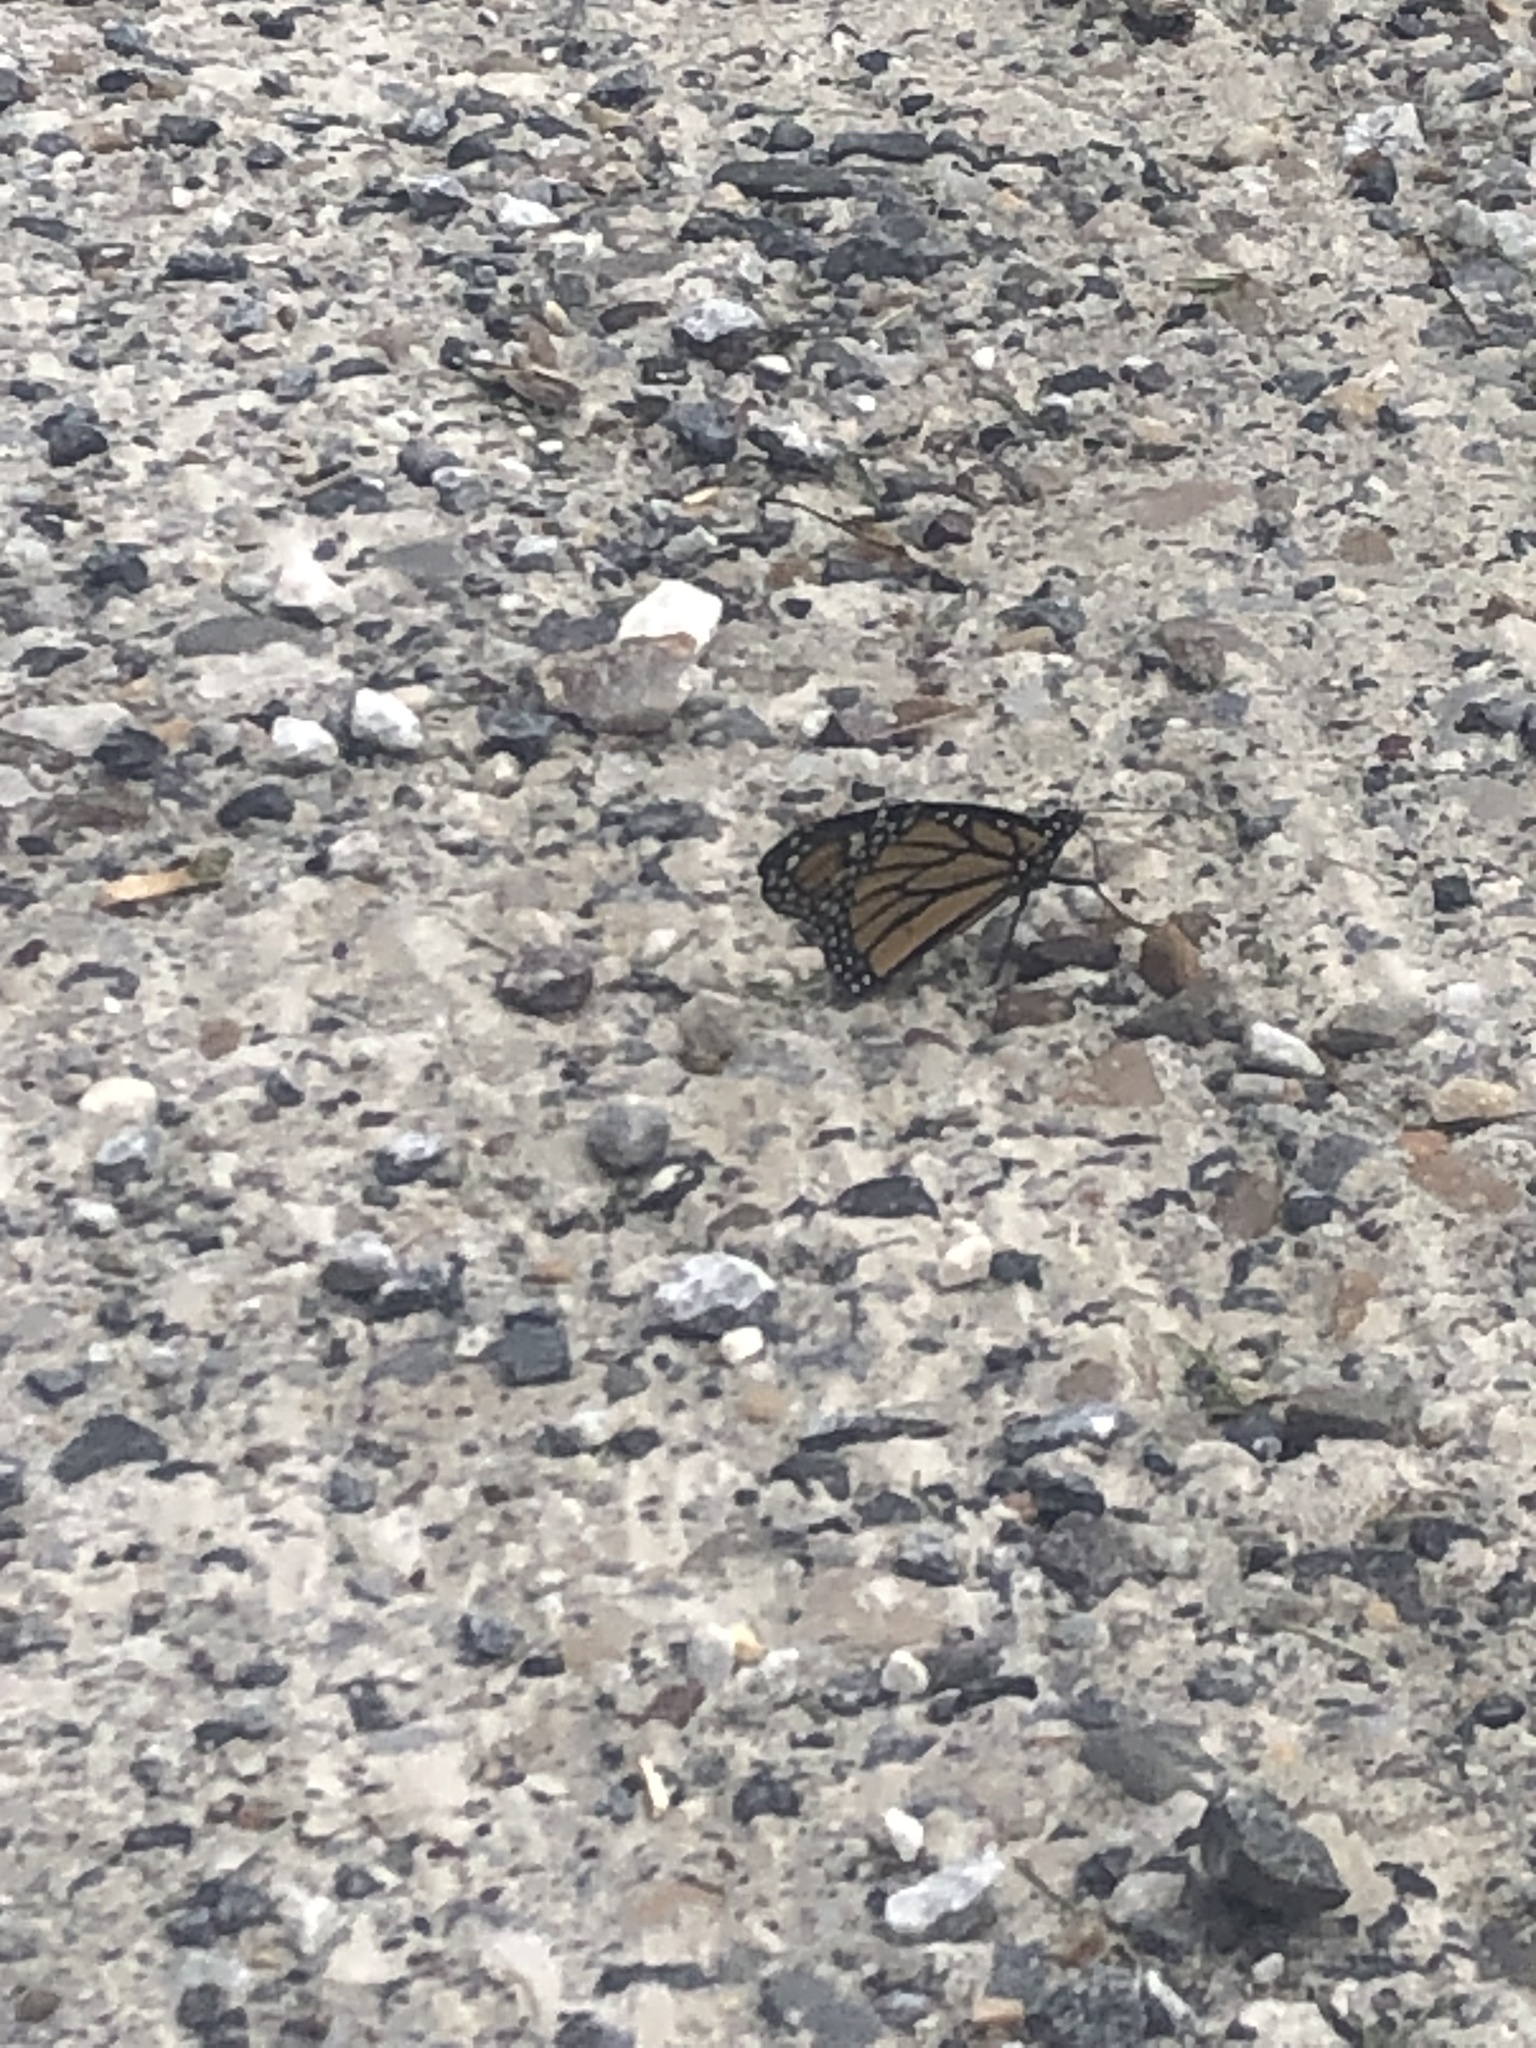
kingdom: Animalia
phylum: Arthropoda
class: Insecta
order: Lepidoptera
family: Nymphalidae
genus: Danaus
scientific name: Danaus plexippus
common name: Monarch
